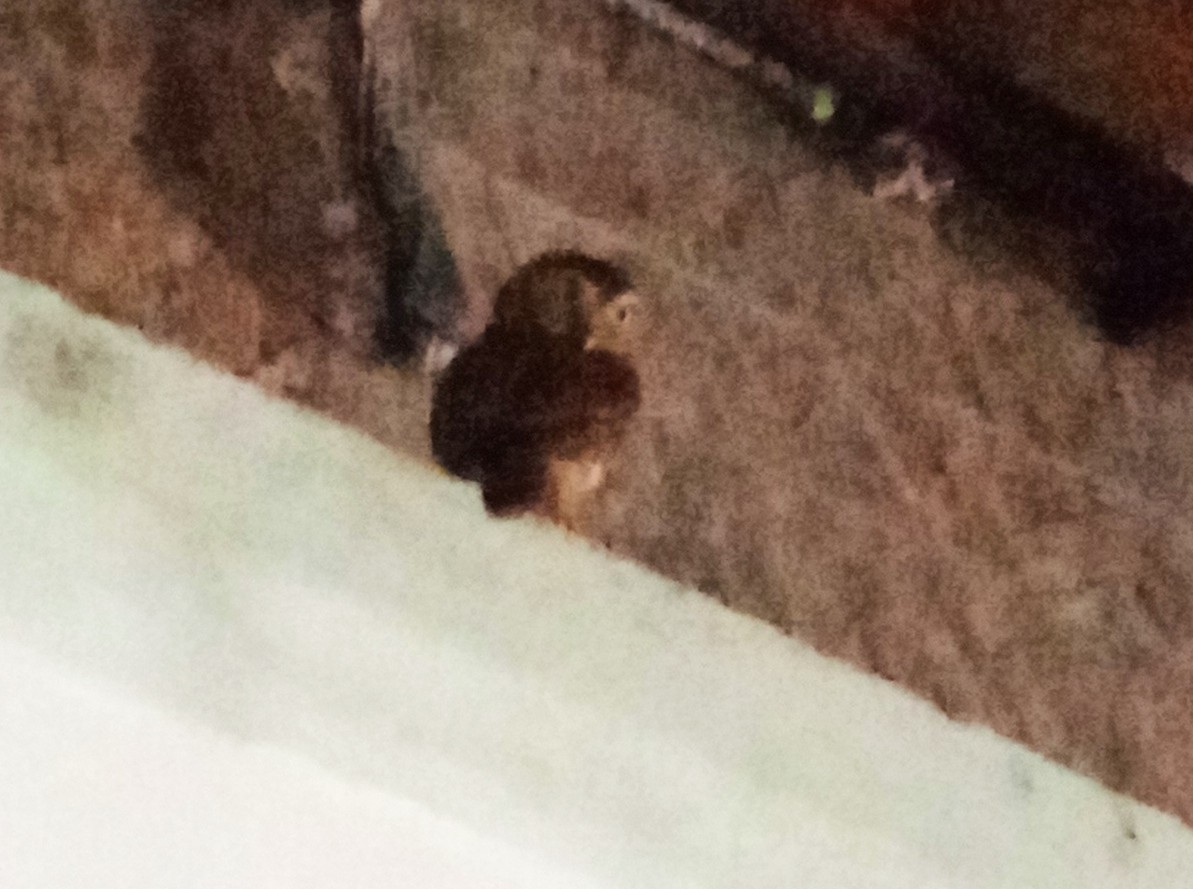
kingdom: Animalia
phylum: Chordata
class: Aves
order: Strigiformes
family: Strigidae
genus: Glaucidium
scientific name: Glaucidium brasilianum
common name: Ferruginous pygmy-owl
